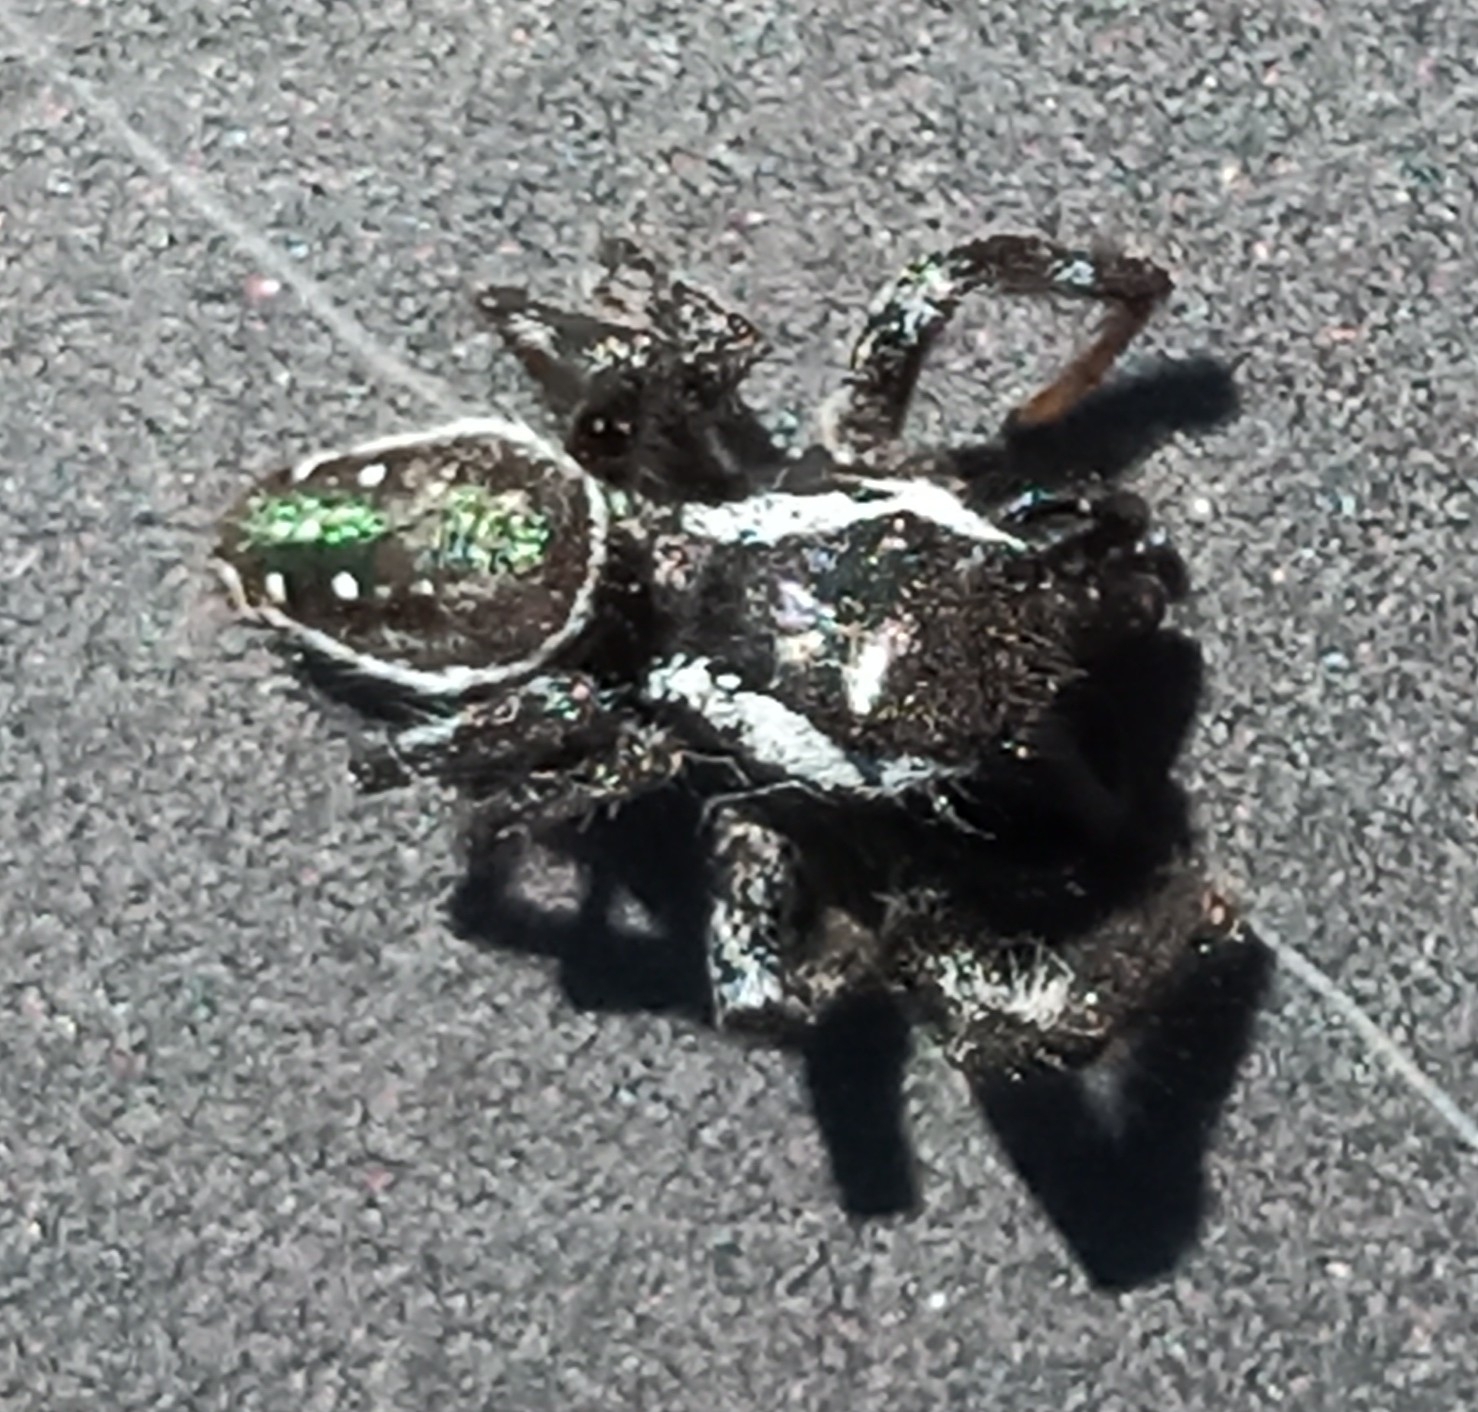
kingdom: Animalia
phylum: Arthropoda
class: Arachnida
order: Araneae
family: Salticidae
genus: Paraphidippus
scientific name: Paraphidippus aurantius
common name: Jumping spiders
